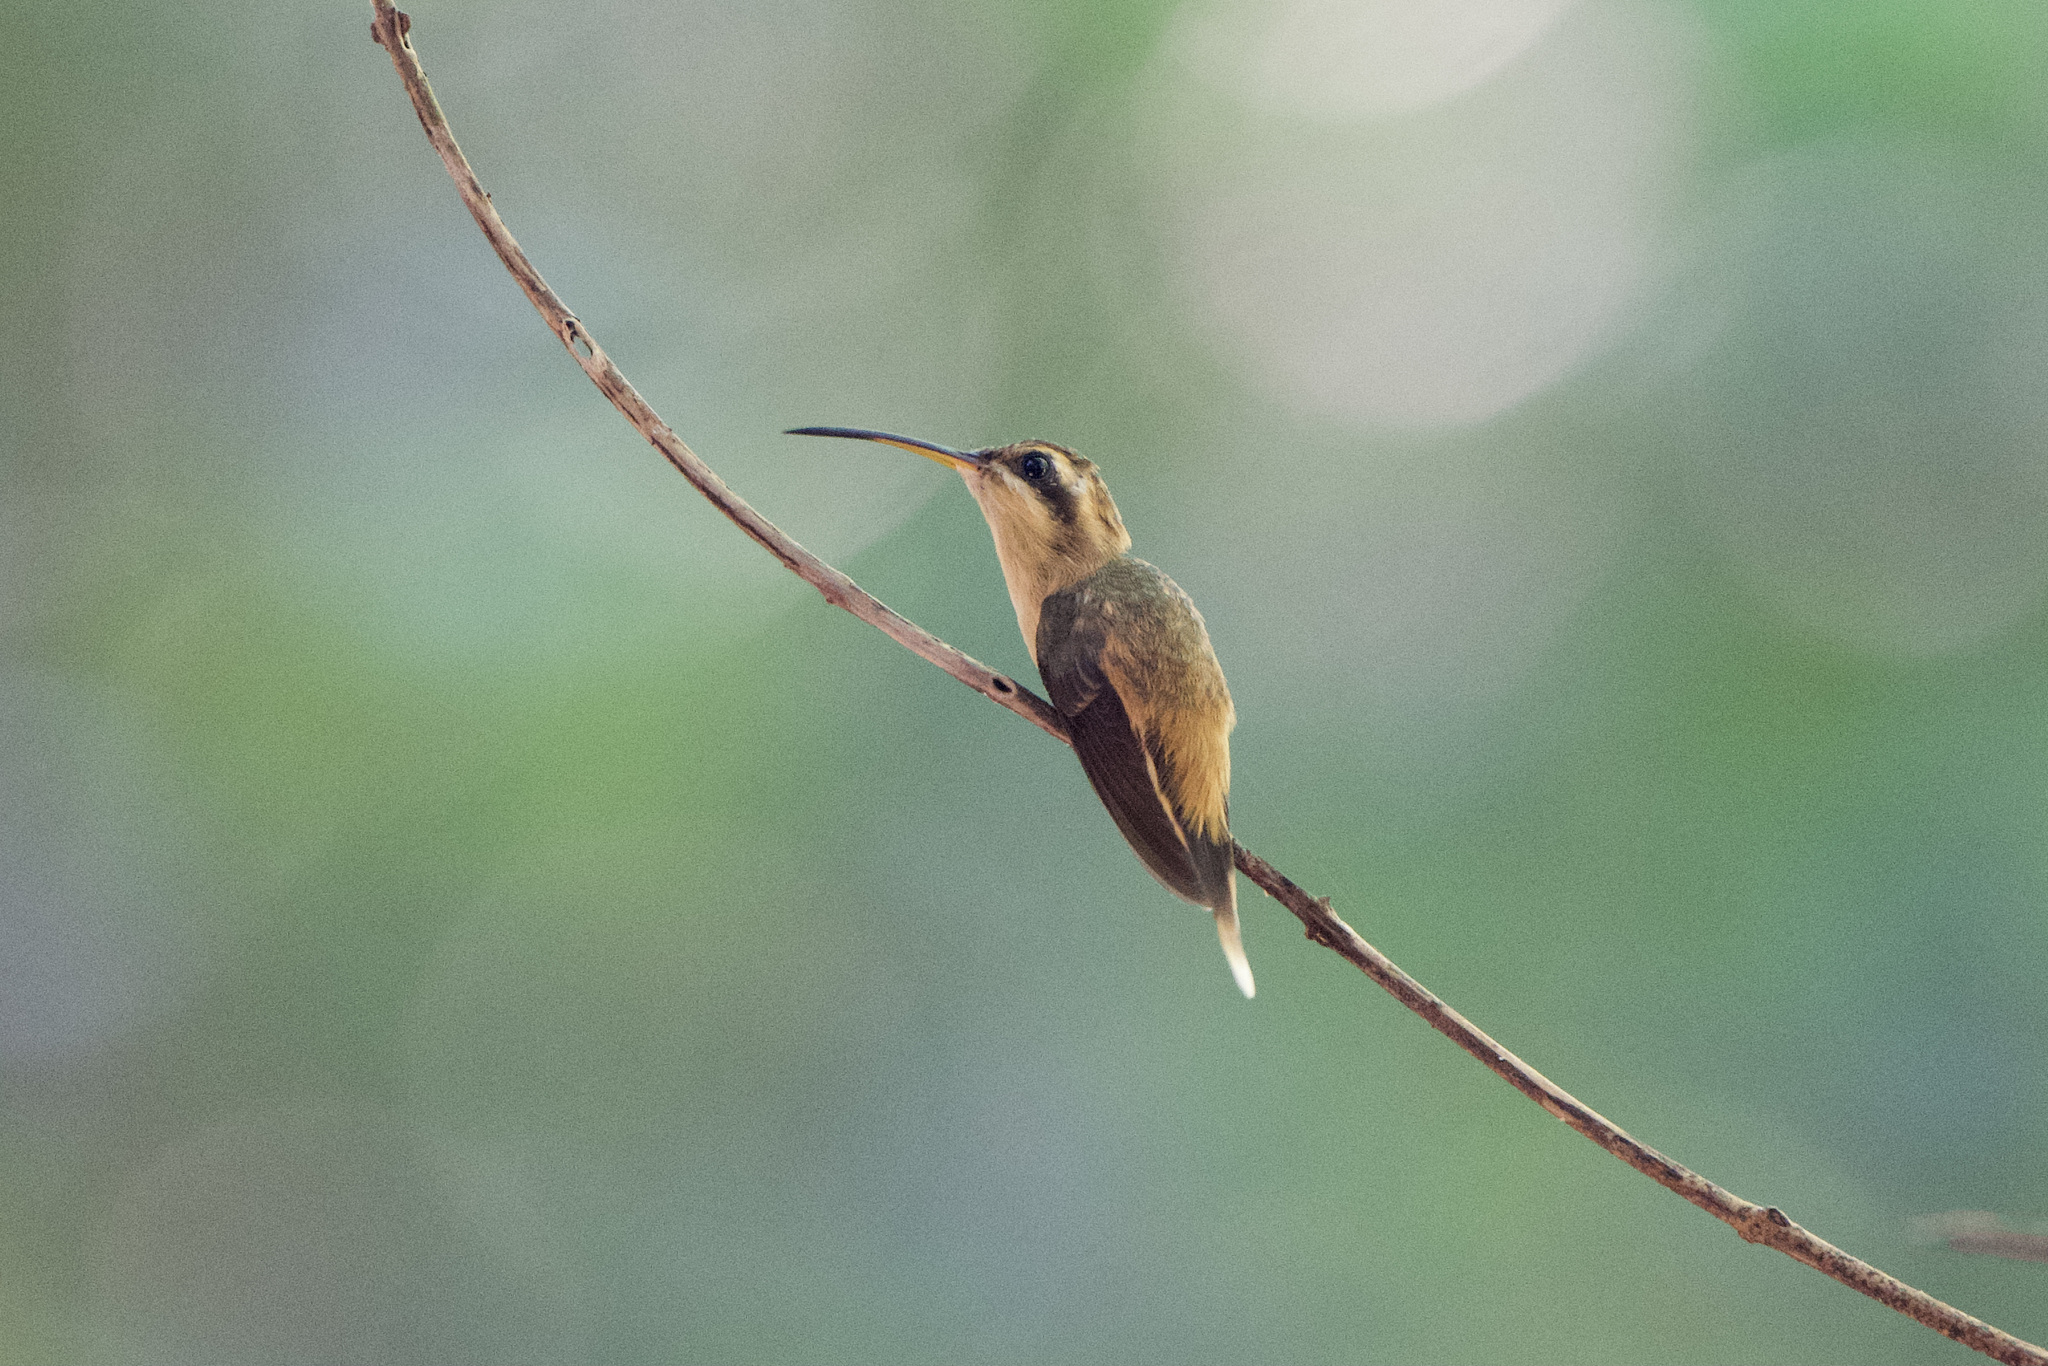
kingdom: Animalia
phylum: Chordata
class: Aves
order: Apodiformes
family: Trochilidae
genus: Phaethornis
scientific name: Phaethornis striigularis
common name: Stripe-throated hermit
